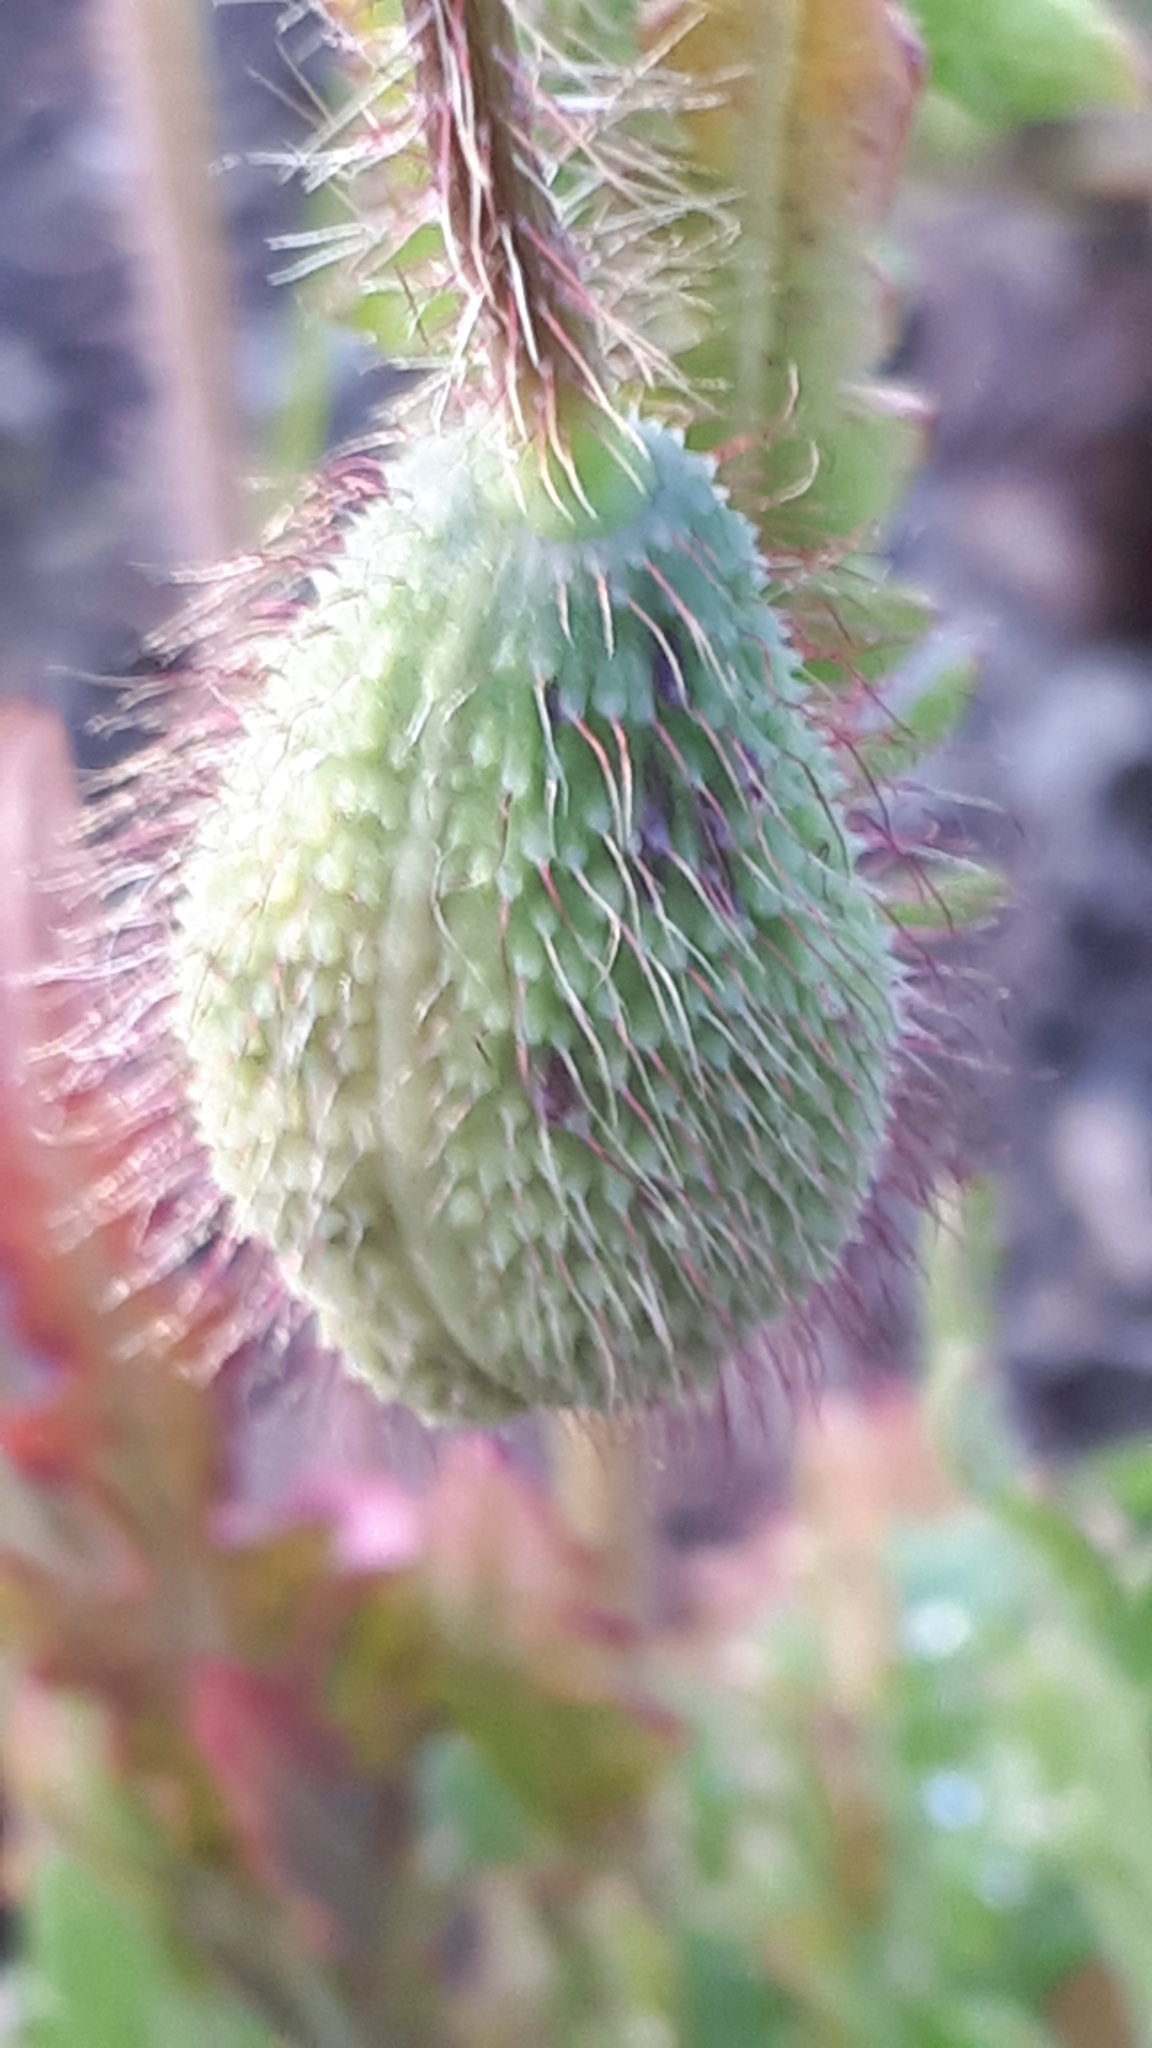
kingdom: Plantae
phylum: Tracheophyta
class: Magnoliopsida
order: Ranunculales
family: Papaveraceae
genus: Papaver
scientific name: Papaver rhoeas
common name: Corn poppy
